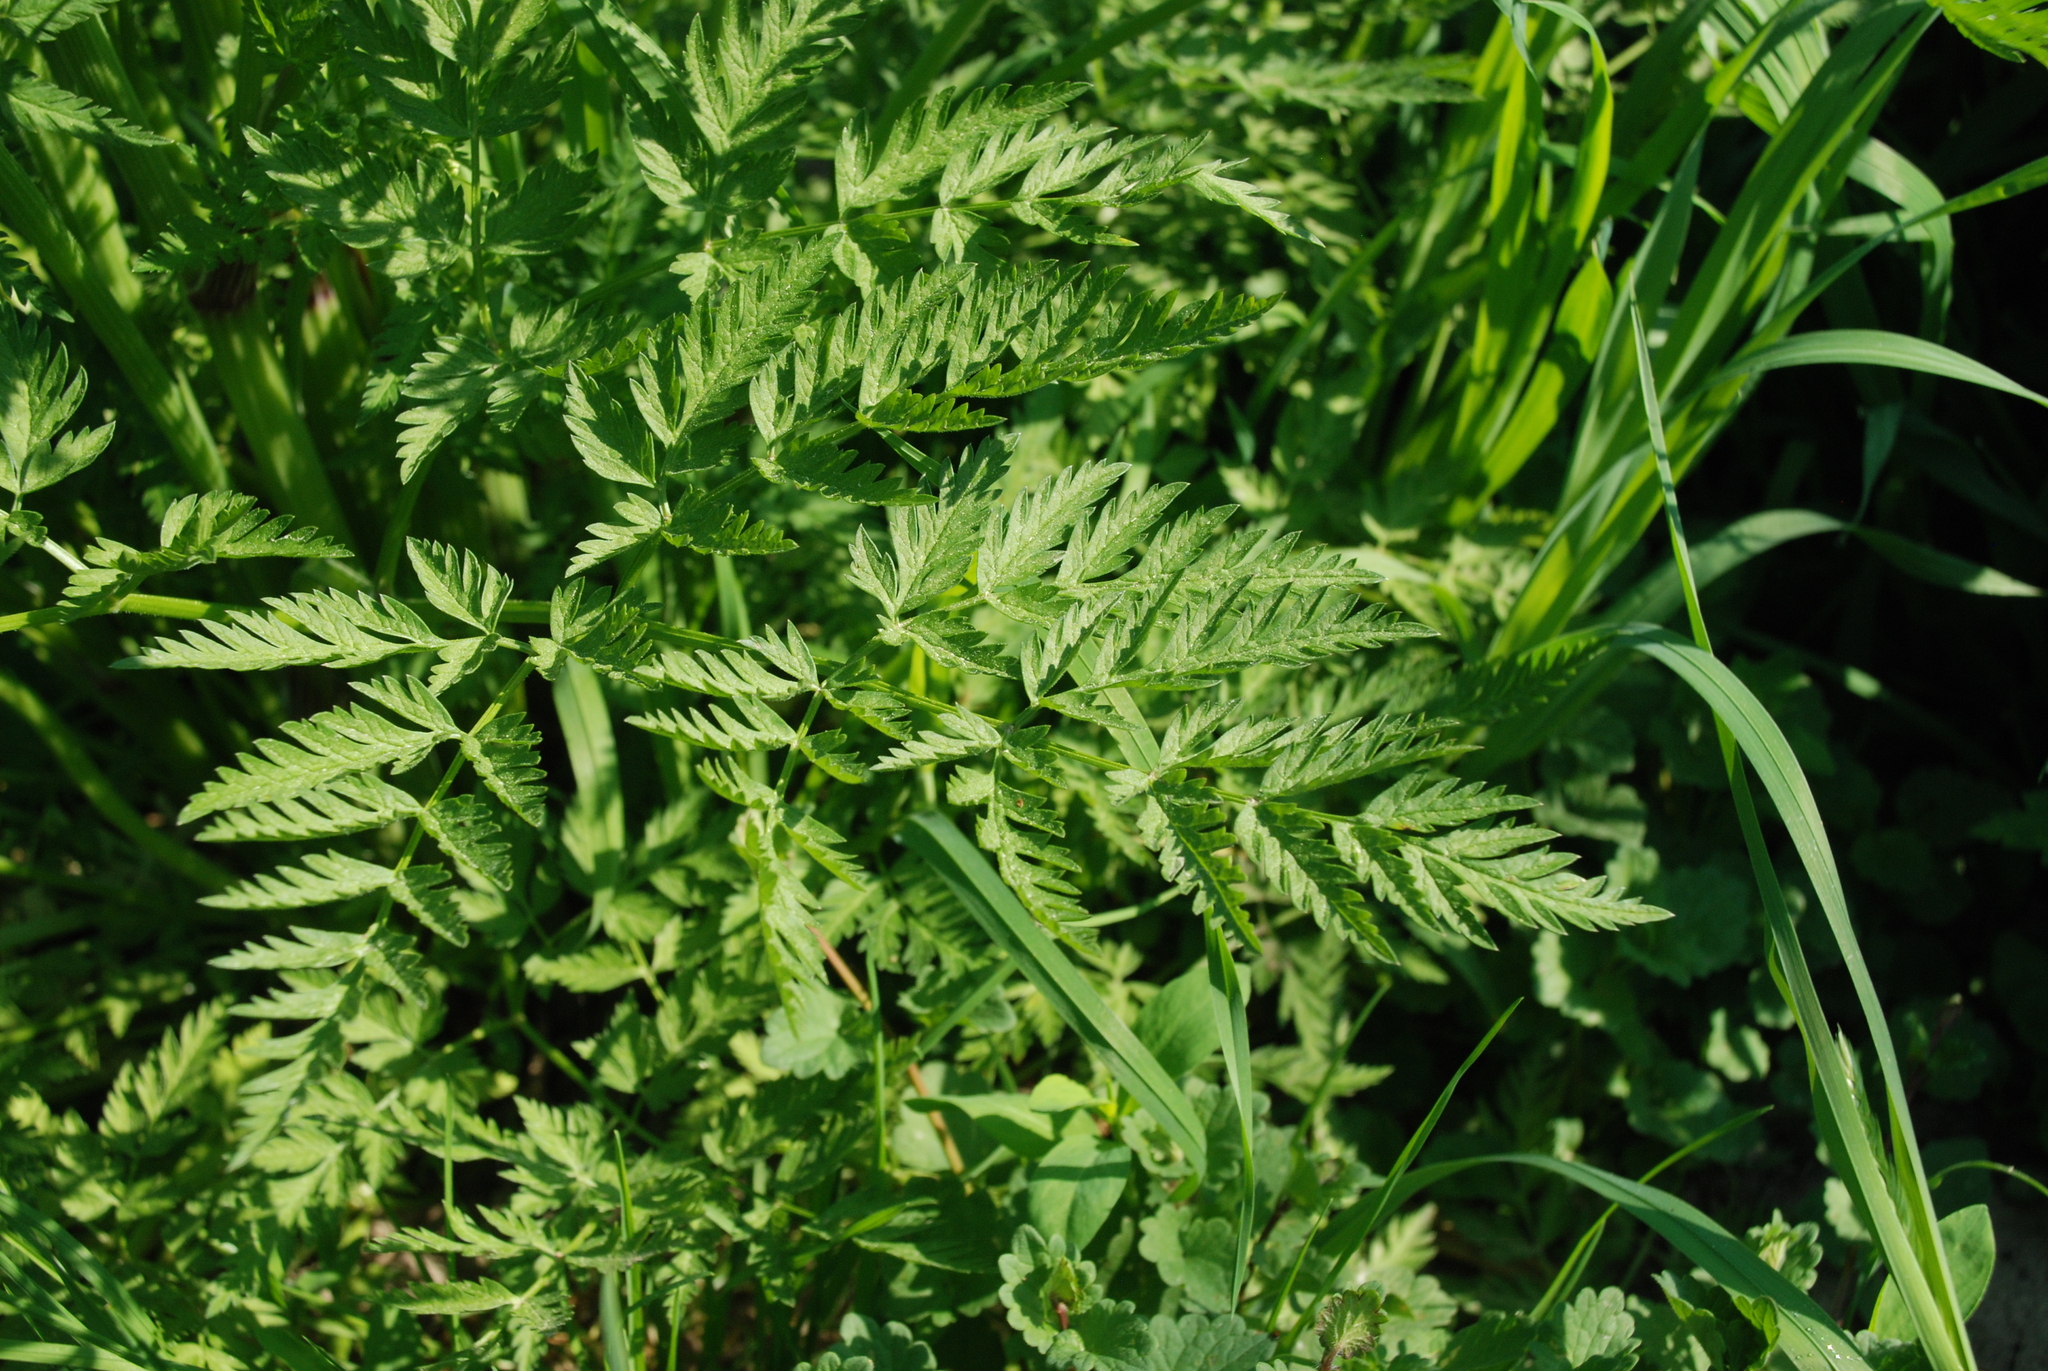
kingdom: Plantae
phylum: Tracheophyta
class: Magnoliopsida
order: Apiales
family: Apiaceae
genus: Anthriscus
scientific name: Anthriscus sylvestris
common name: Cow parsley
